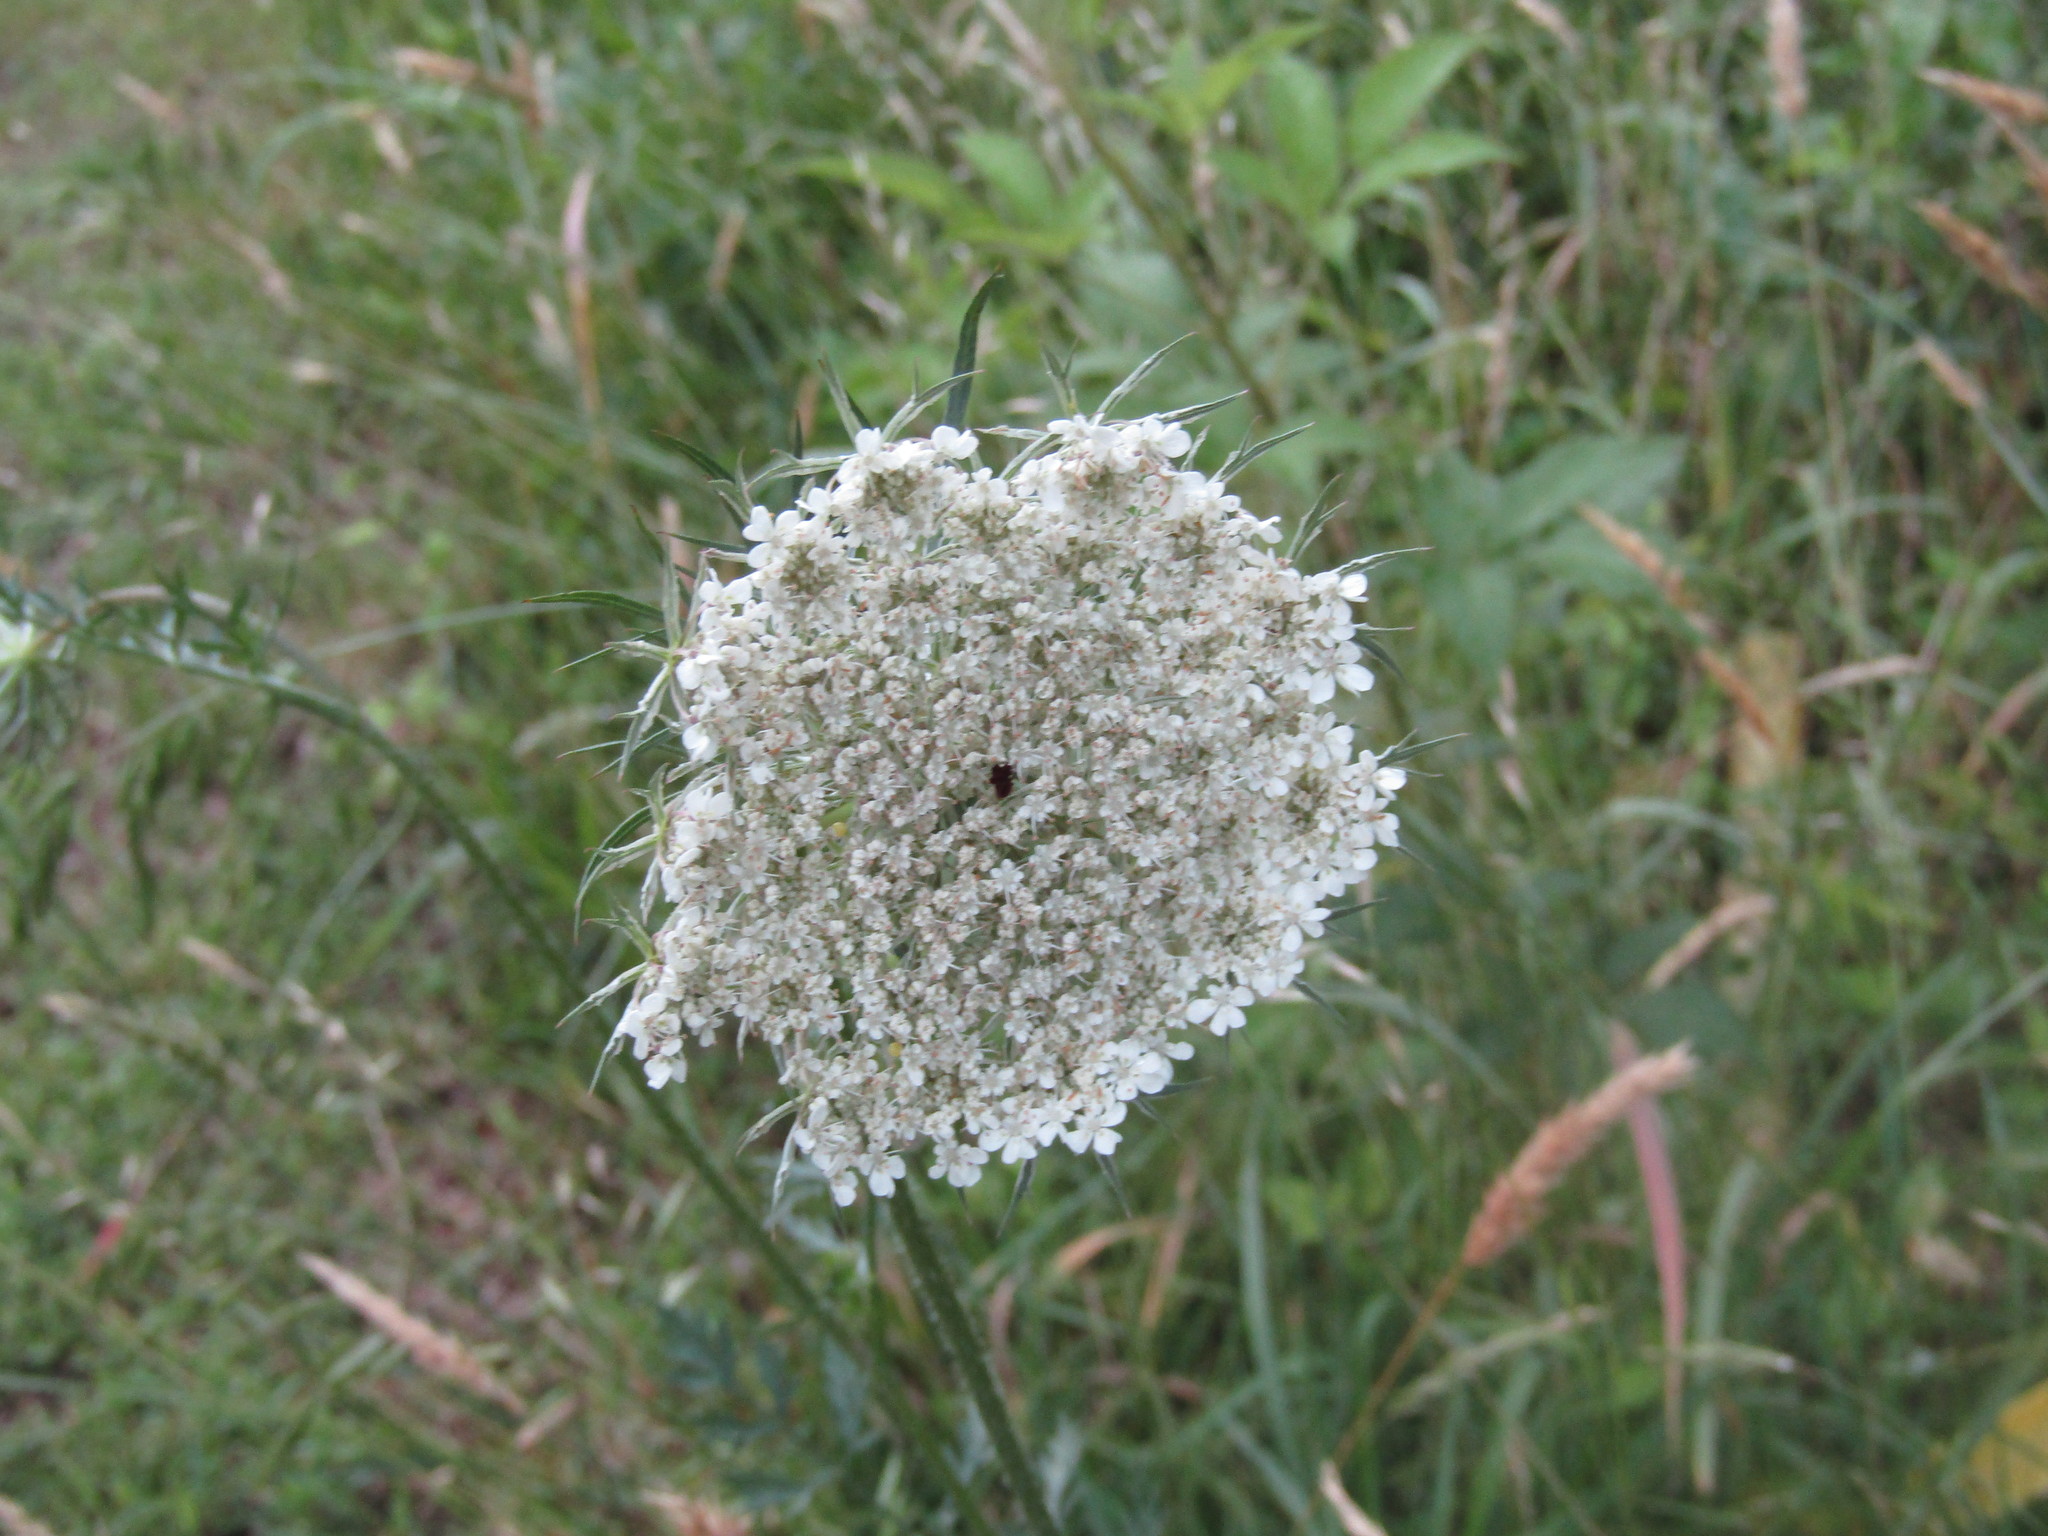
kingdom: Plantae
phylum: Tracheophyta
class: Magnoliopsida
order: Apiales
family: Apiaceae
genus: Daucus
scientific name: Daucus carota
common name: Wild carrot
